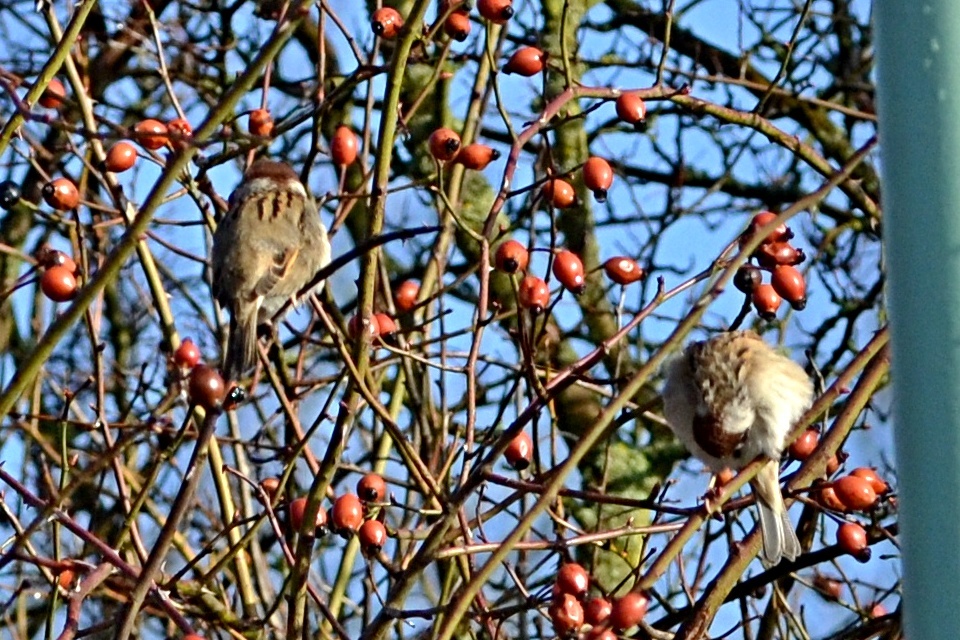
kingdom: Animalia
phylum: Chordata
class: Aves
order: Passeriformes
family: Passeridae
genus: Passer
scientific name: Passer montanus
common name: Eurasian tree sparrow
